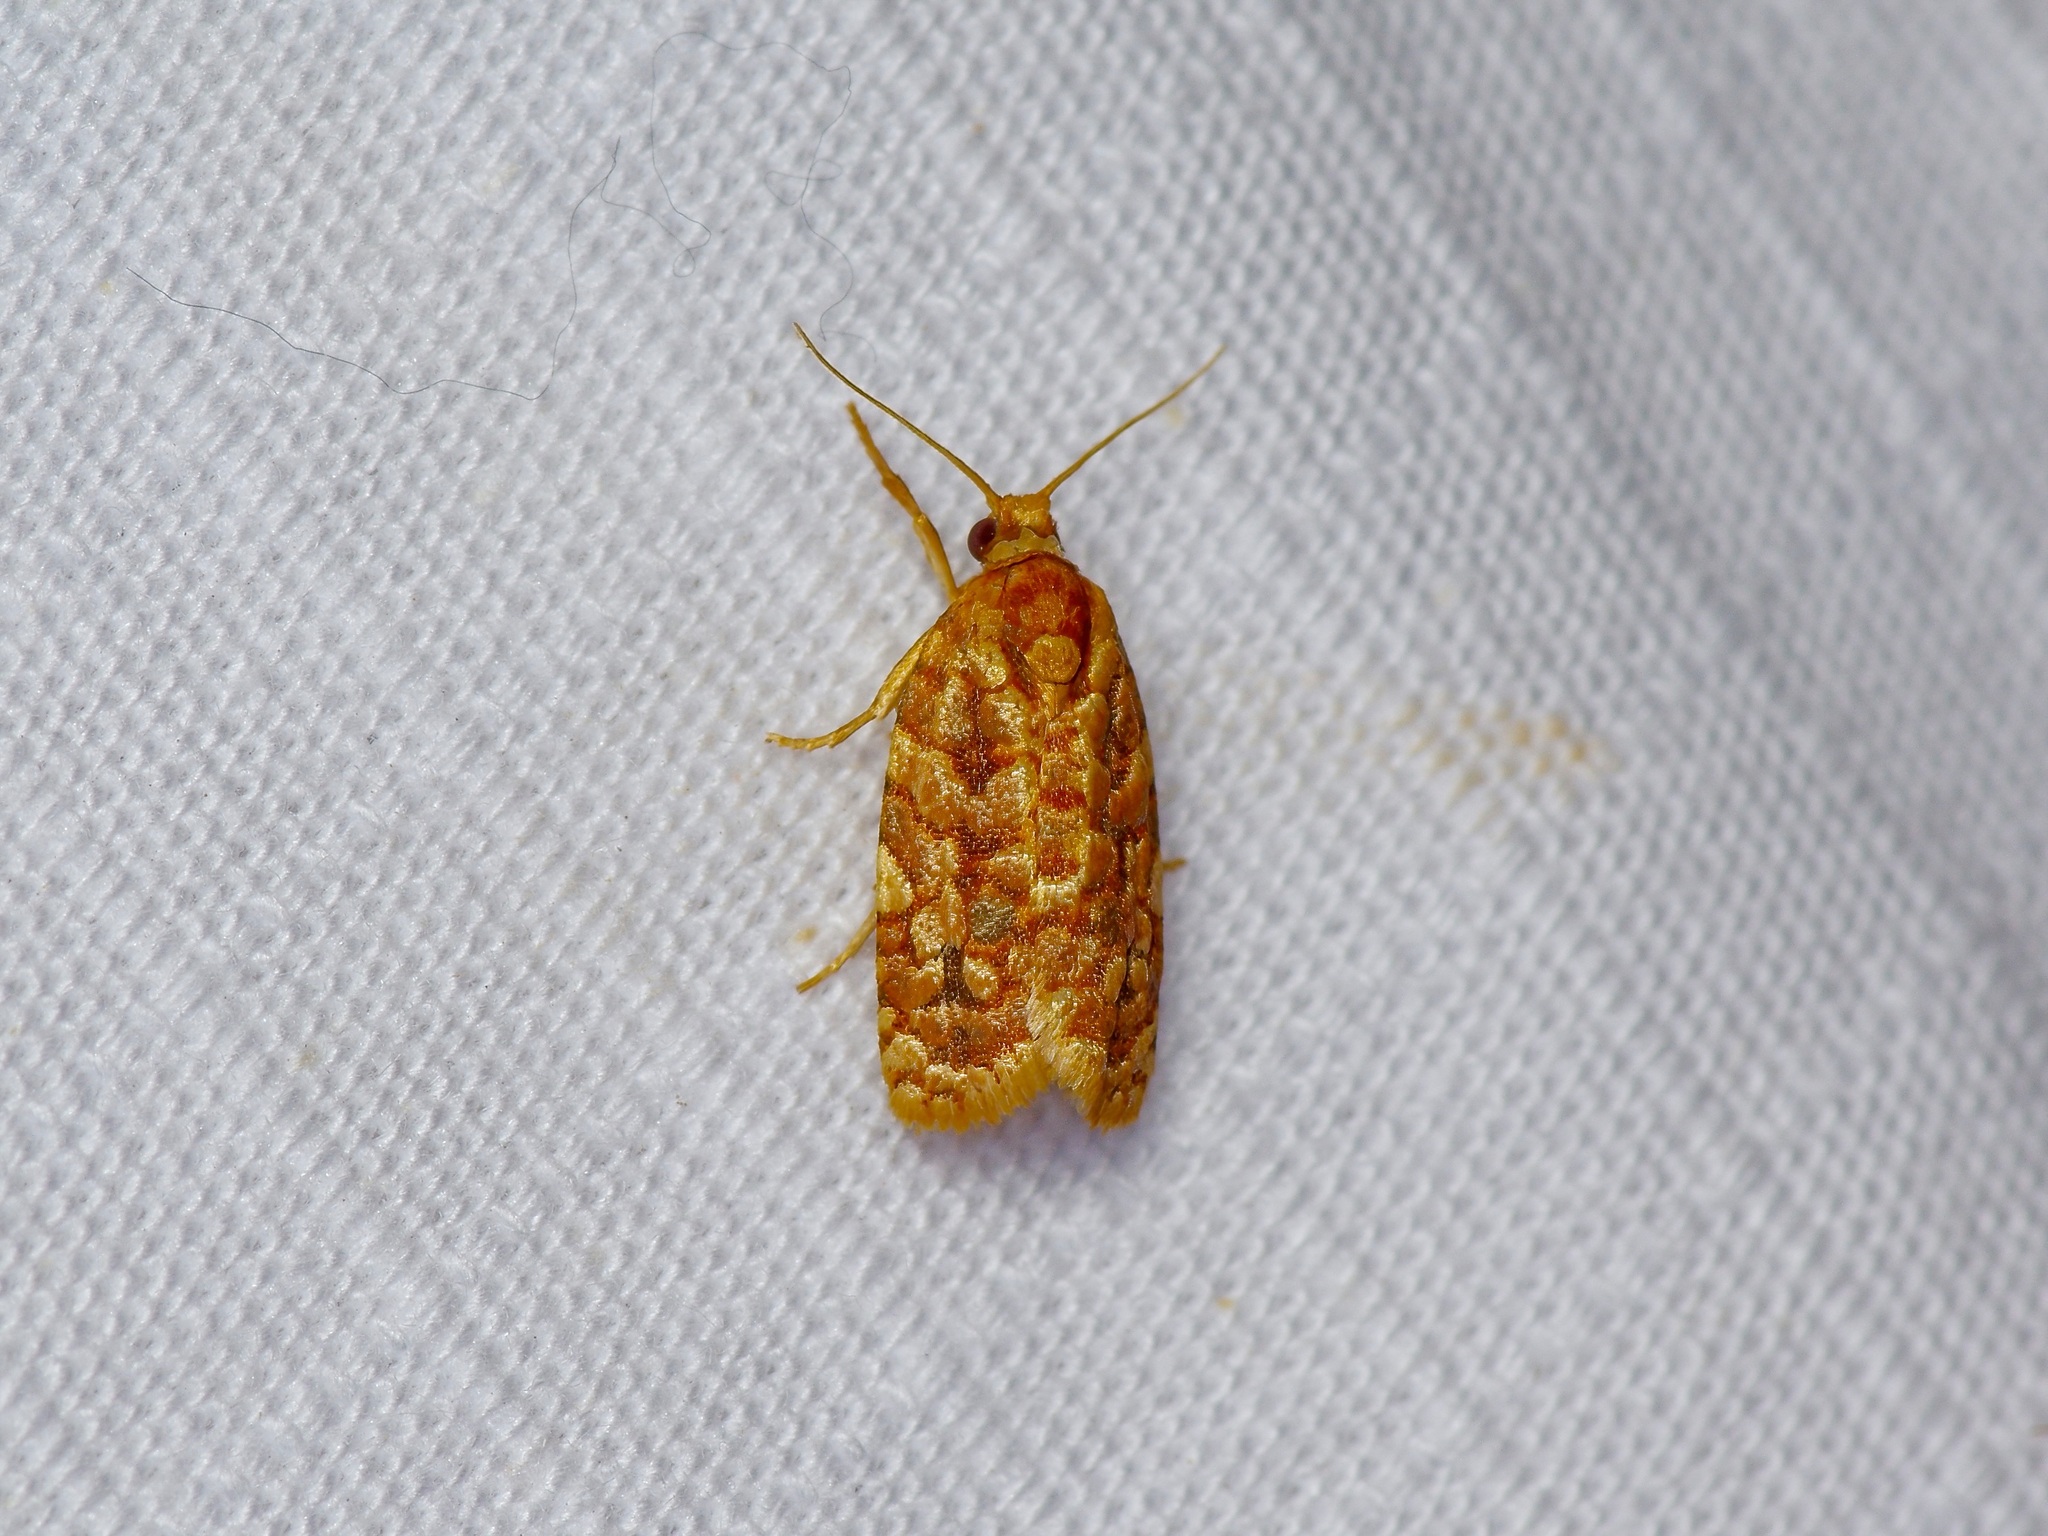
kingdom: Animalia
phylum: Arthropoda
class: Insecta
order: Lepidoptera
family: Tortricidae
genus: Choristoneura
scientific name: Choristoneura houstonana
